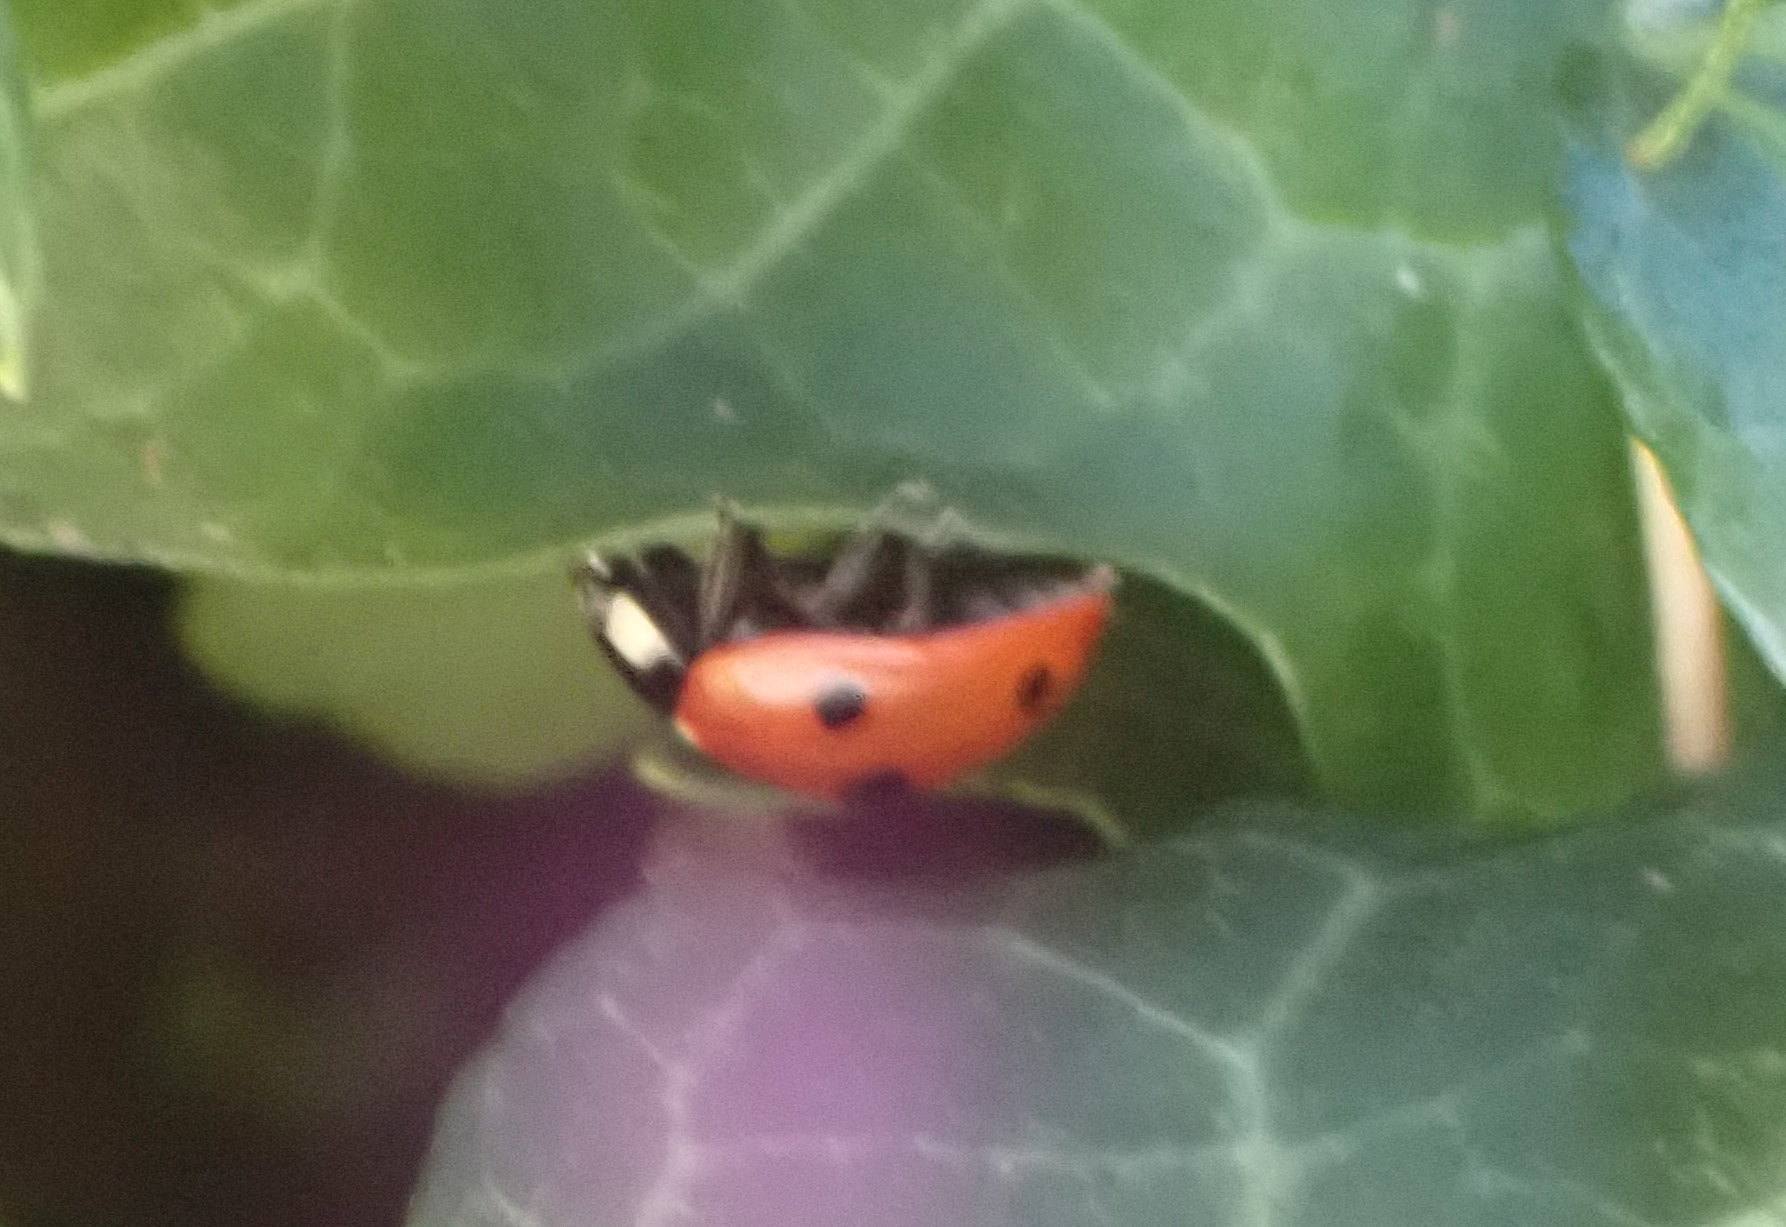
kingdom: Animalia
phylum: Arthropoda
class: Insecta
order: Coleoptera
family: Coccinellidae
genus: Coccinella
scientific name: Coccinella septempunctata
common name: Sevenspotted lady beetle
